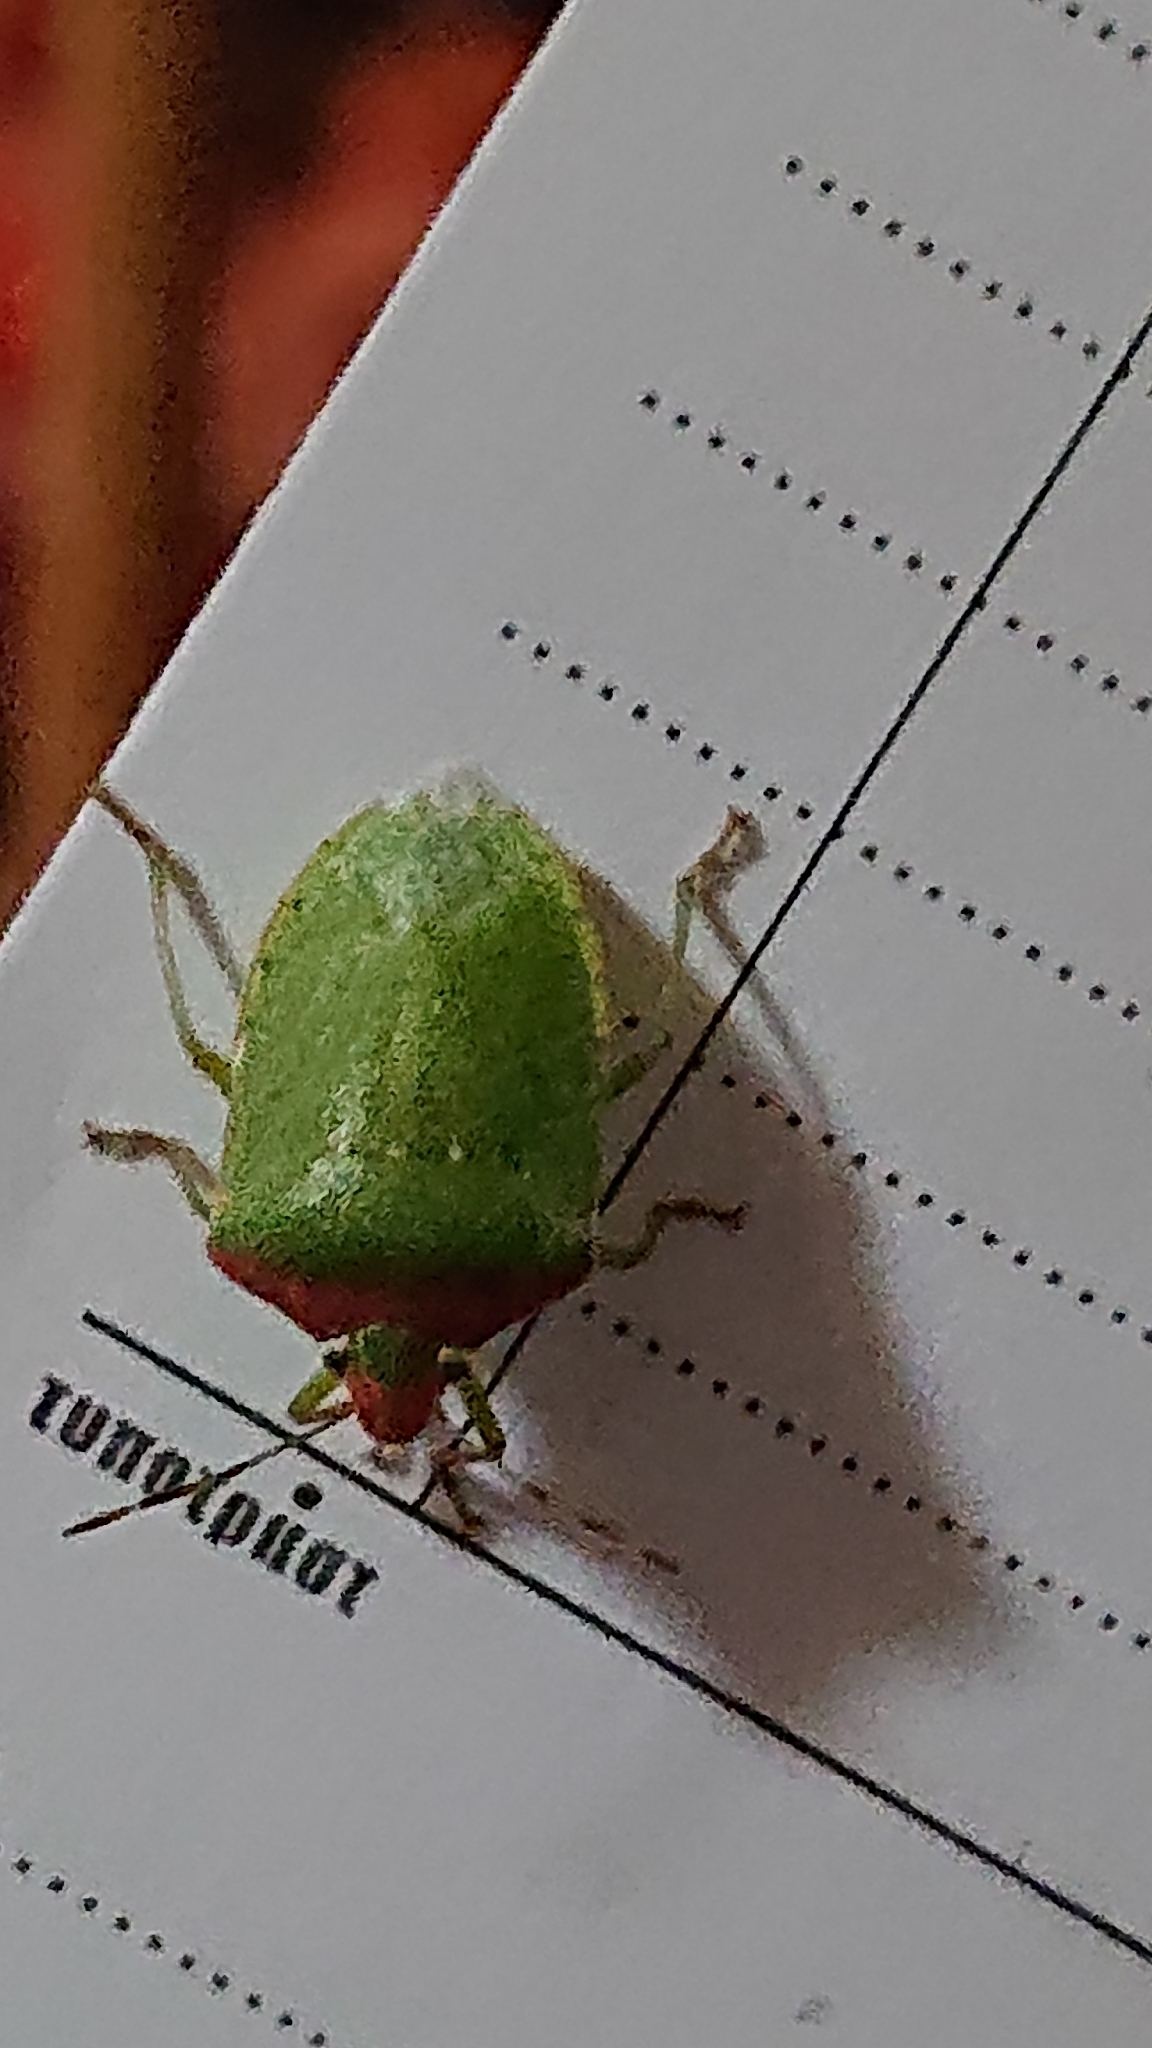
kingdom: Animalia
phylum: Arthropoda
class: Insecta
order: Hemiptera
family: Pentatomidae
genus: Nezara
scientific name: Nezara viridula
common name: Southern green stink bug
